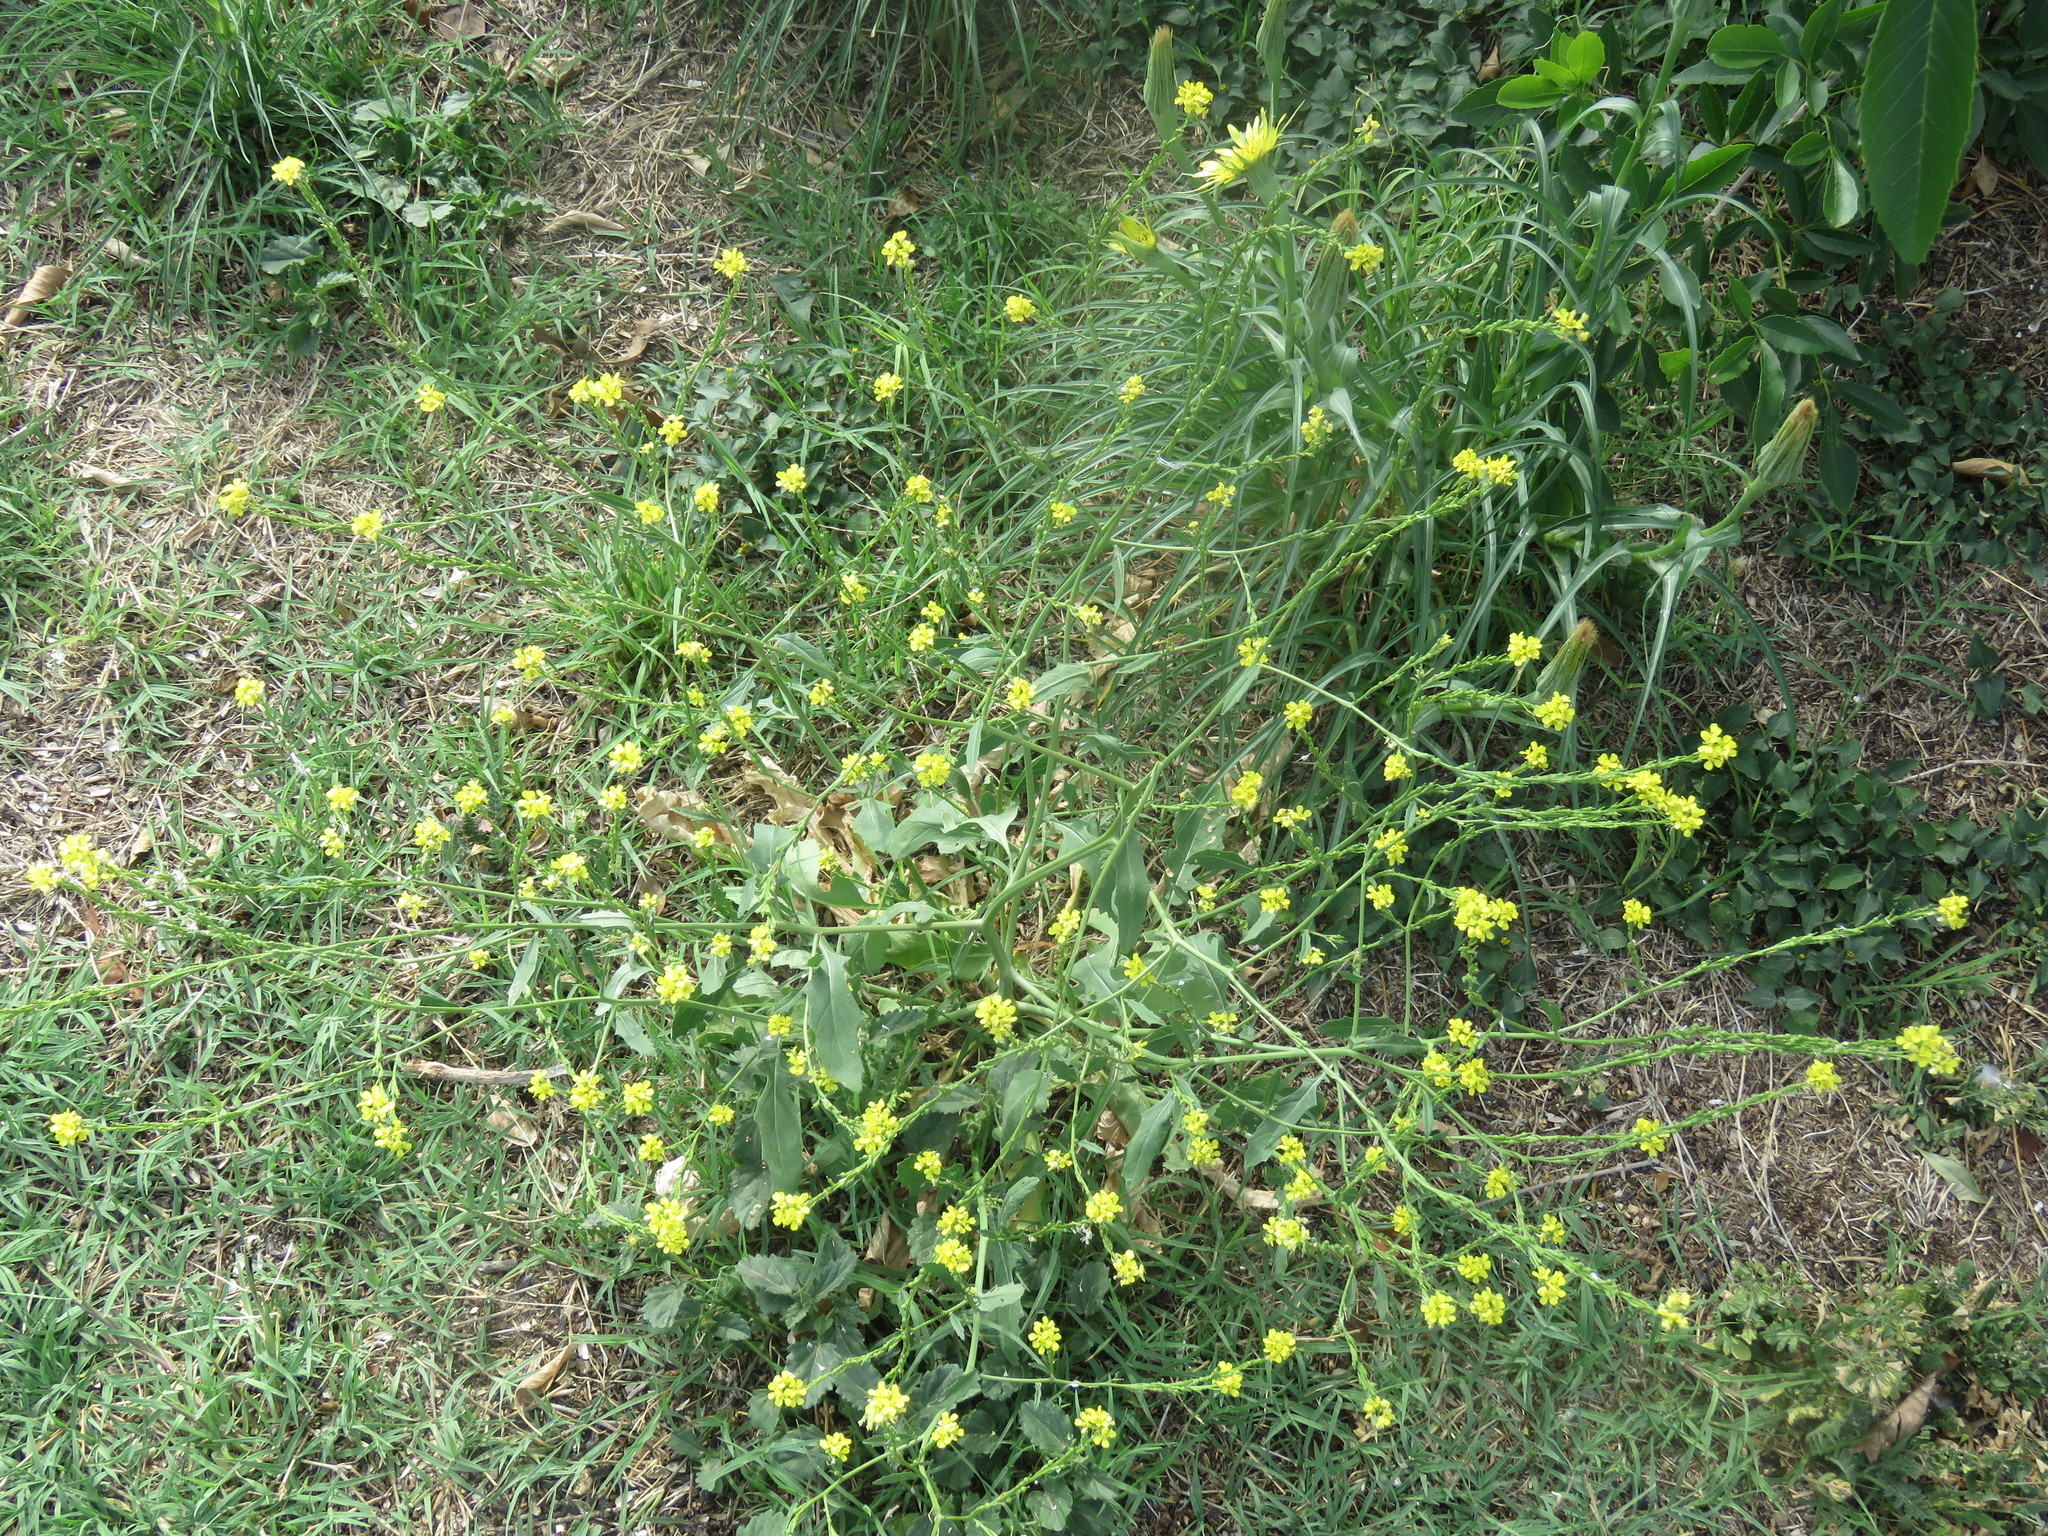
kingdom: Plantae
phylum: Tracheophyta
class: Magnoliopsida
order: Brassicales
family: Brassicaceae
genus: Rapistrum
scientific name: Rapistrum rugosum
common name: Annual bastardcabbage
